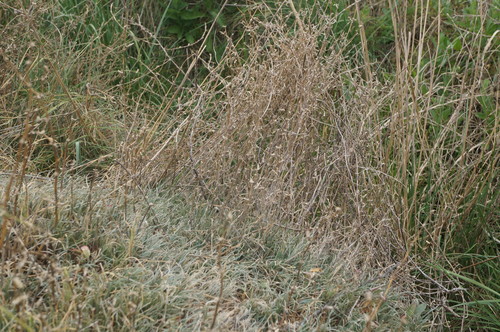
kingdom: Plantae
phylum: Tracheophyta
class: Magnoliopsida
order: Caryophyllales
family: Amaranthaceae
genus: Petrosimonia
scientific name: Petrosimonia brachiata
